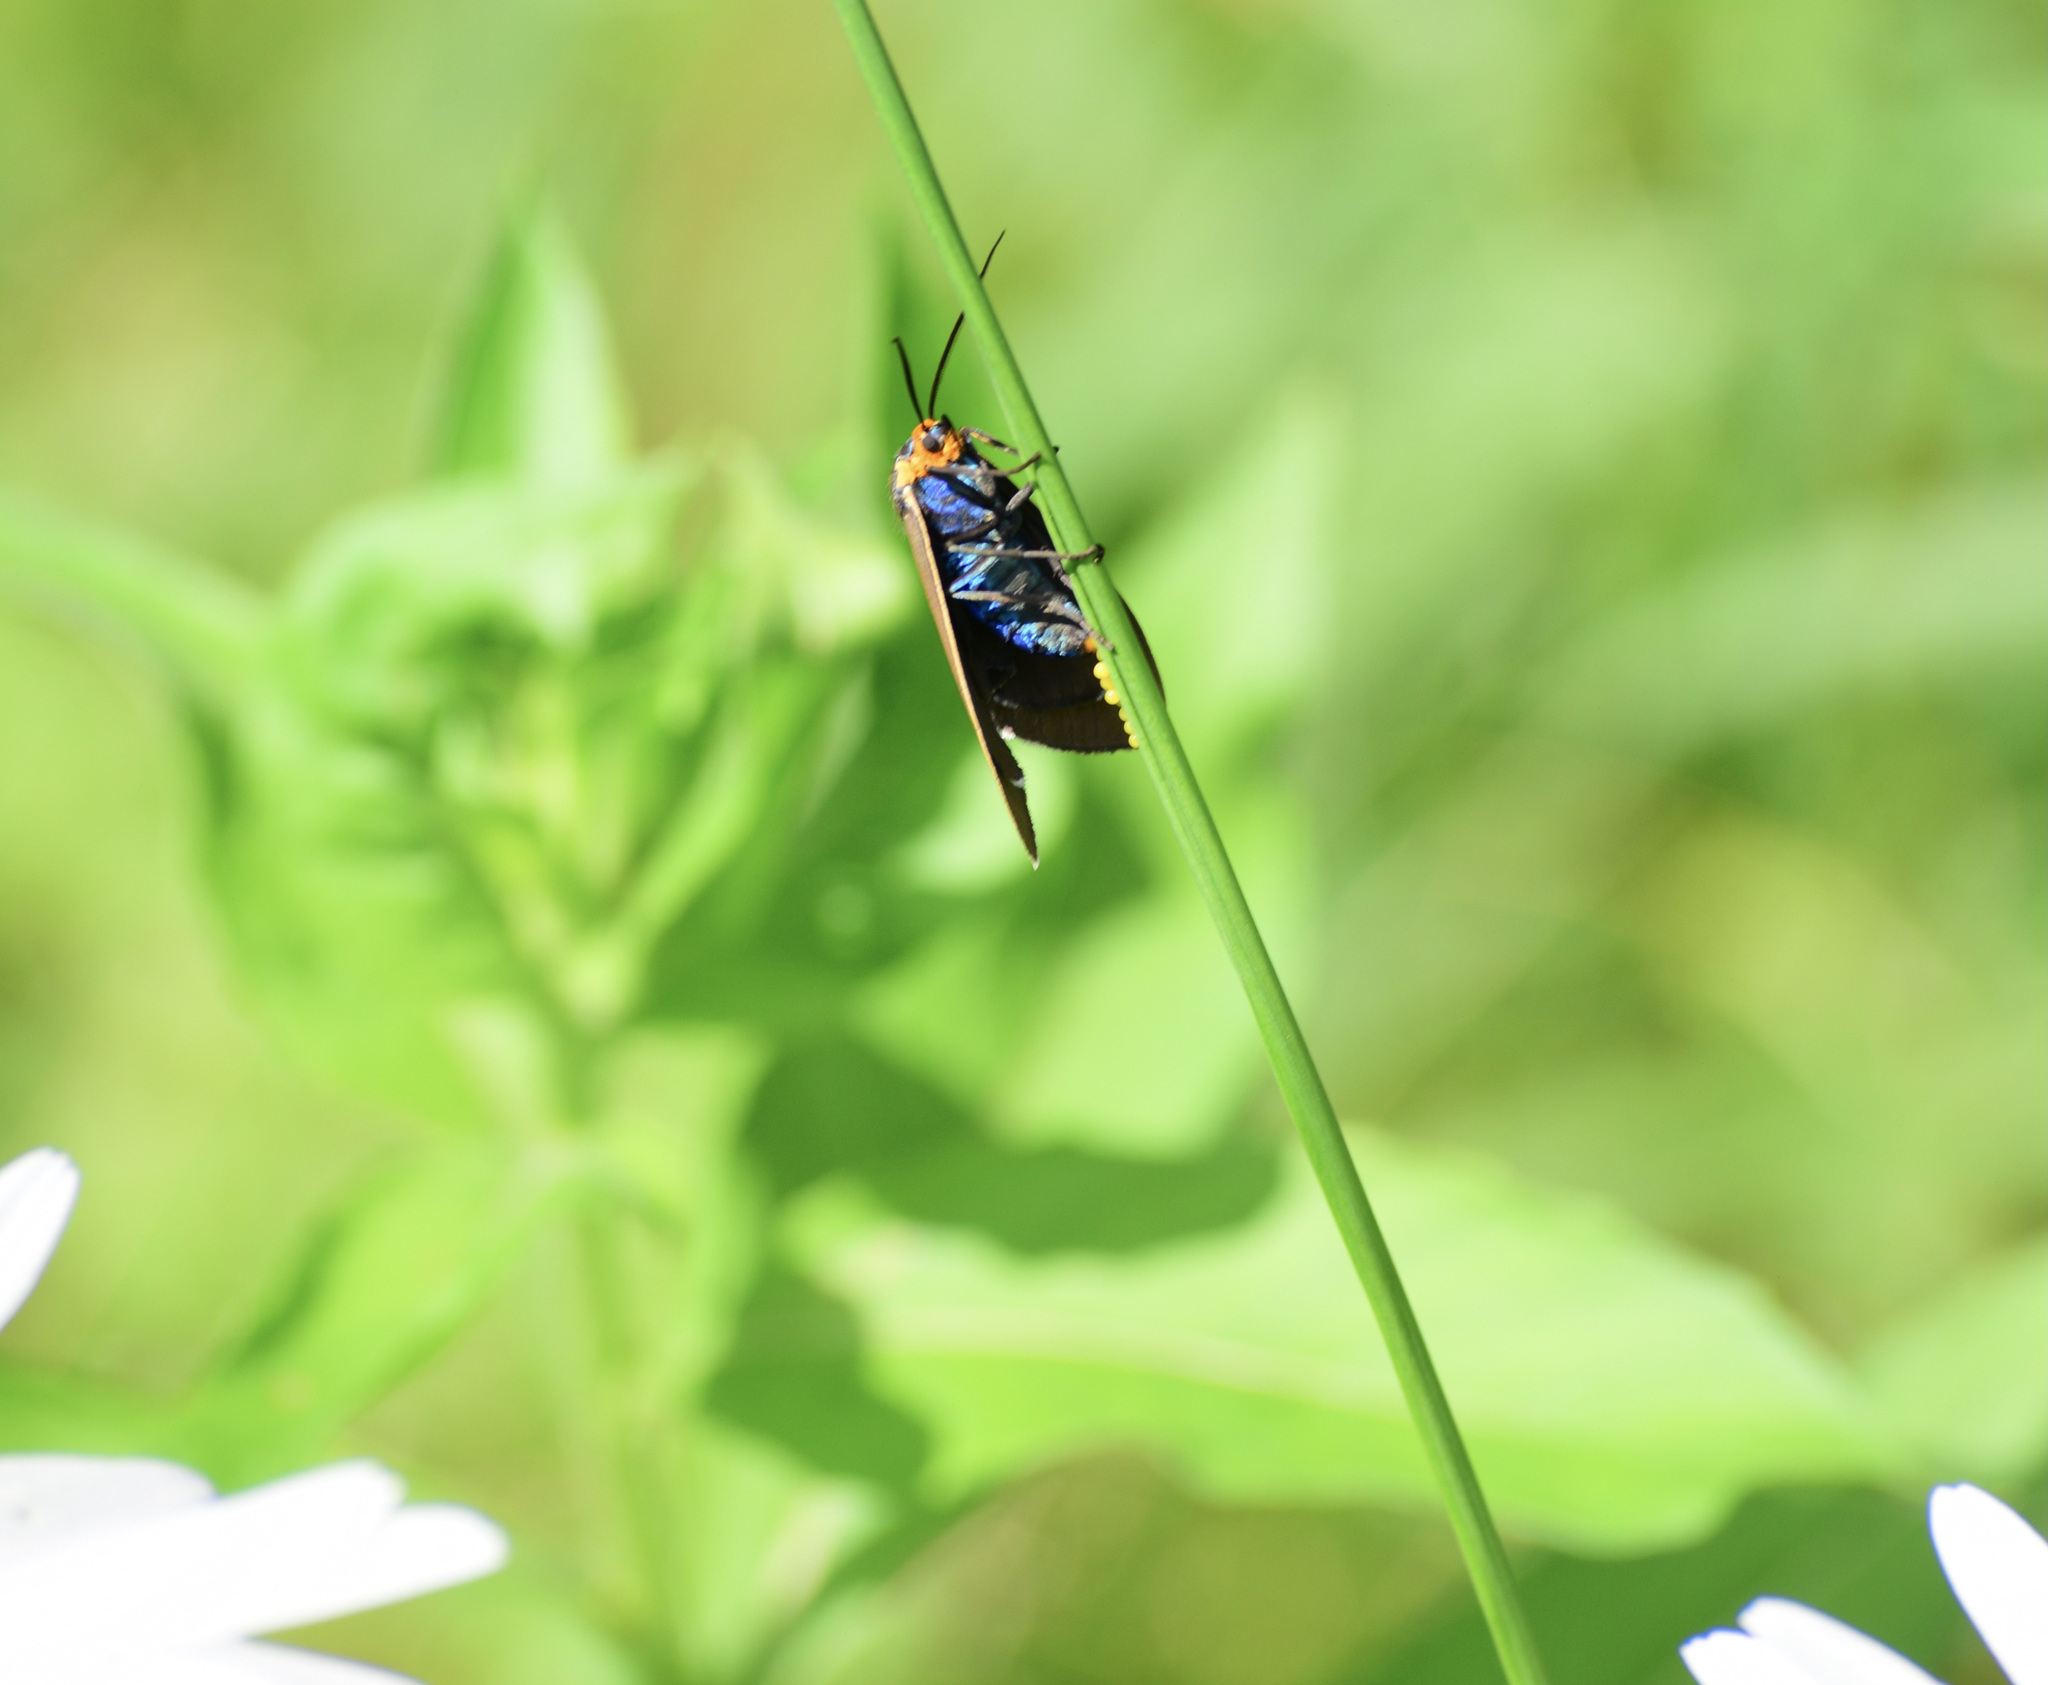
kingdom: Animalia
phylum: Arthropoda
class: Insecta
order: Lepidoptera
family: Erebidae
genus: Ctenucha
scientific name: Ctenucha virginica
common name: Virginia ctenucha moth
